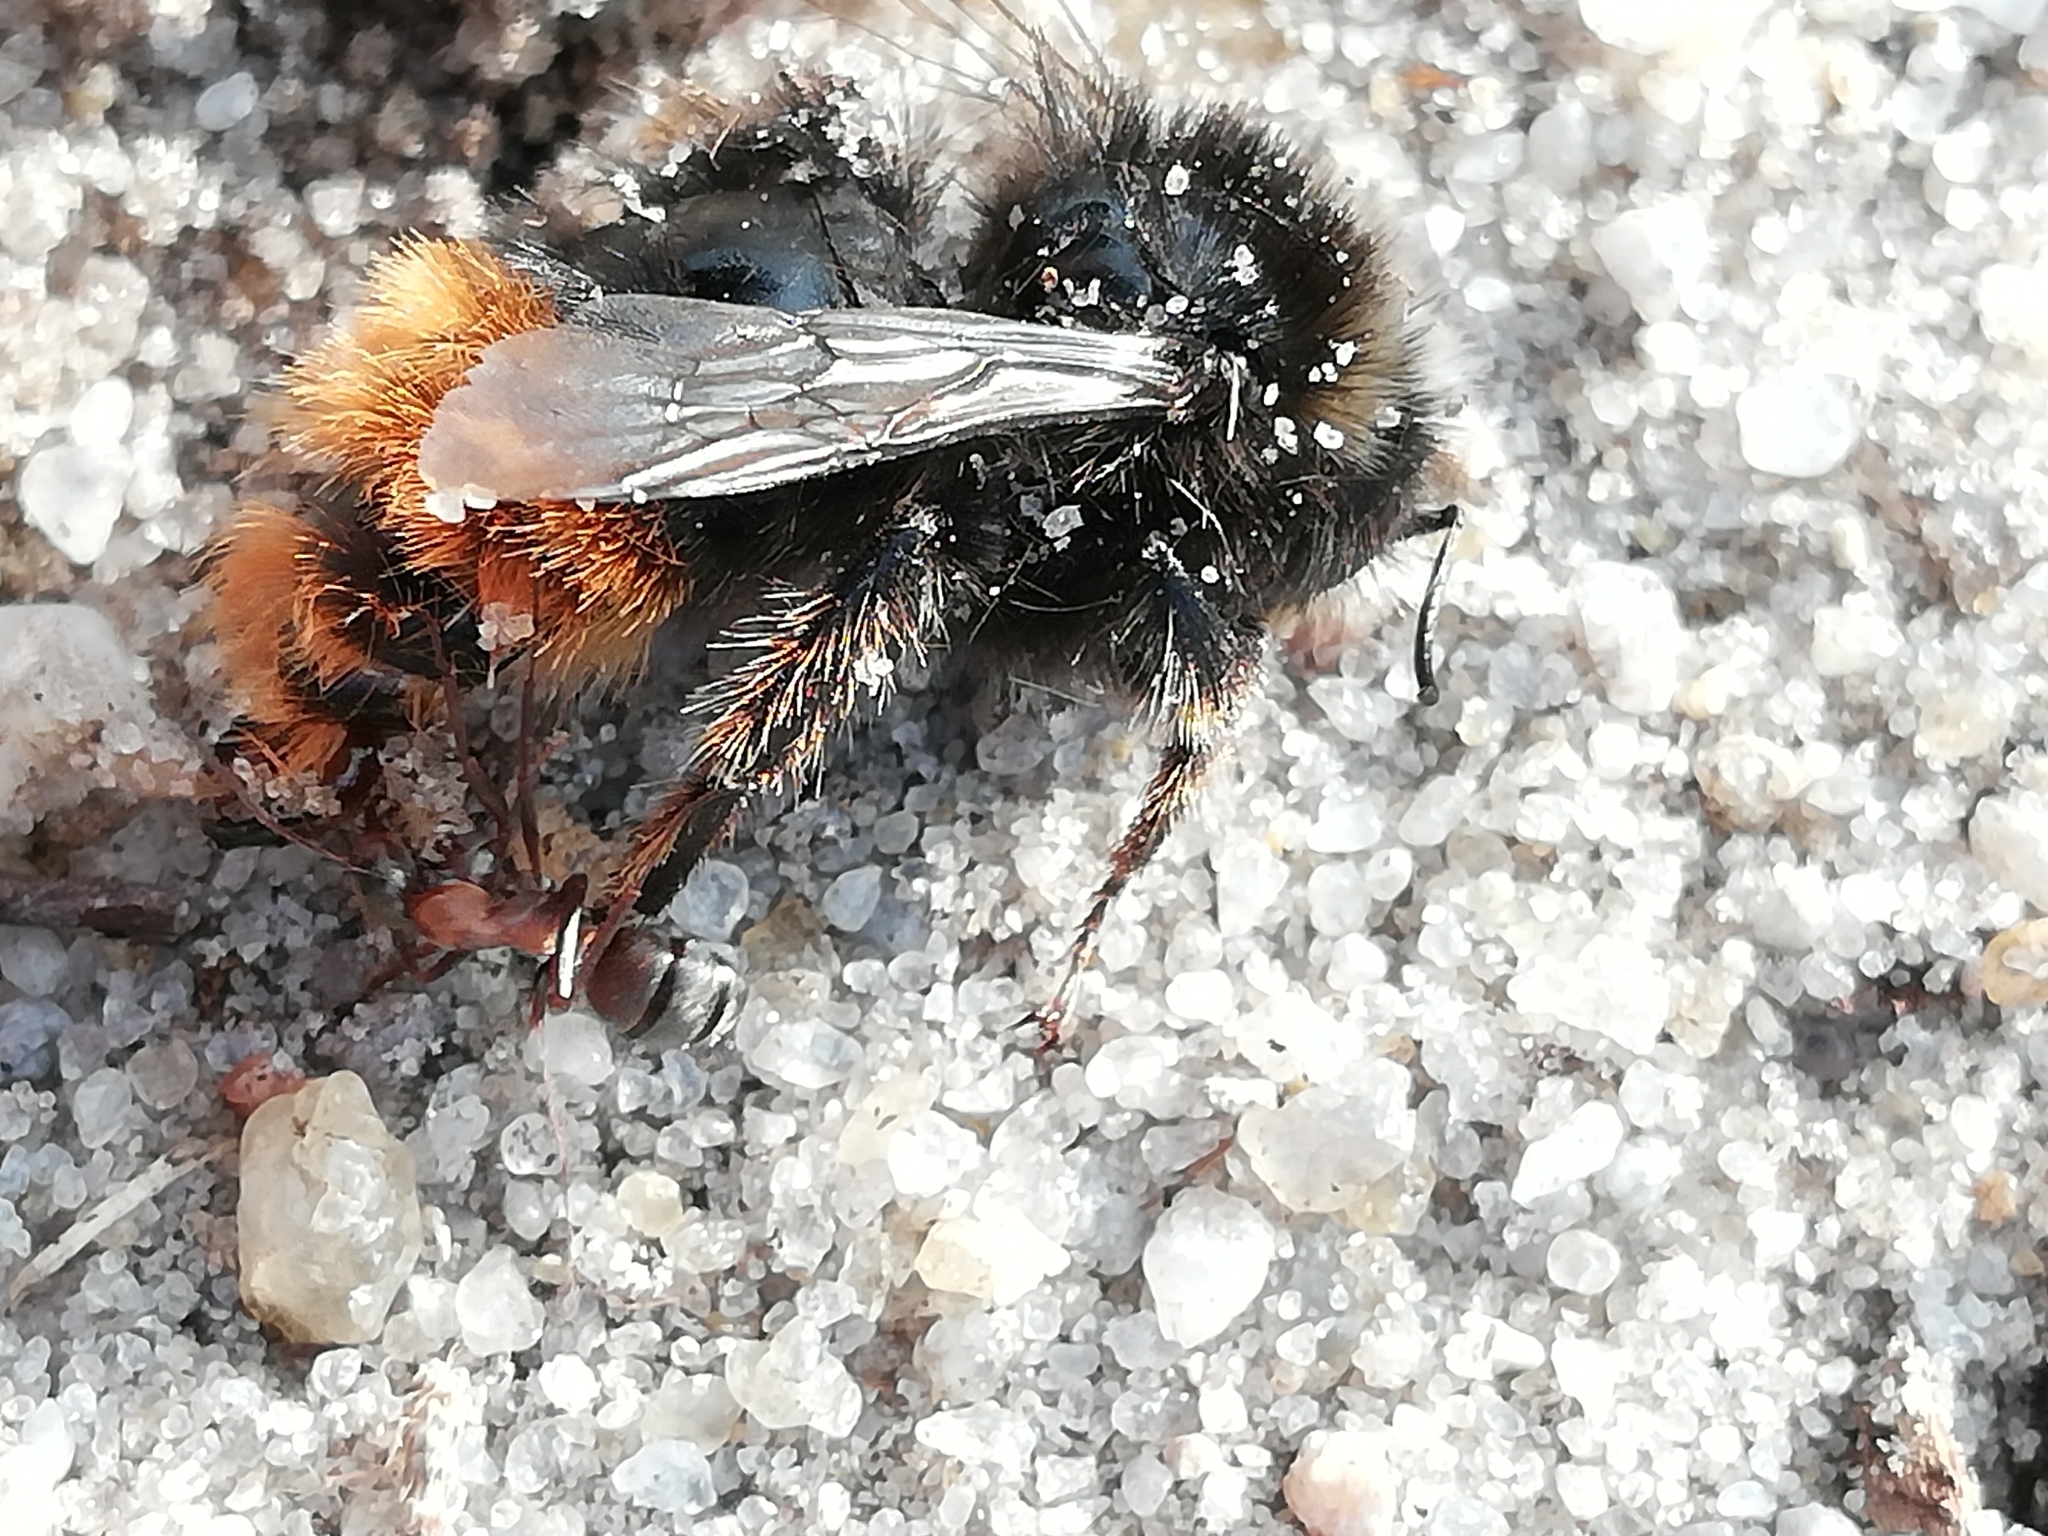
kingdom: Animalia
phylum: Arthropoda
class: Insecta
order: Hymenoptera
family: Apidae
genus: Bombus
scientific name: Bombus lapidarius
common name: Large red-tailed humble-bee
